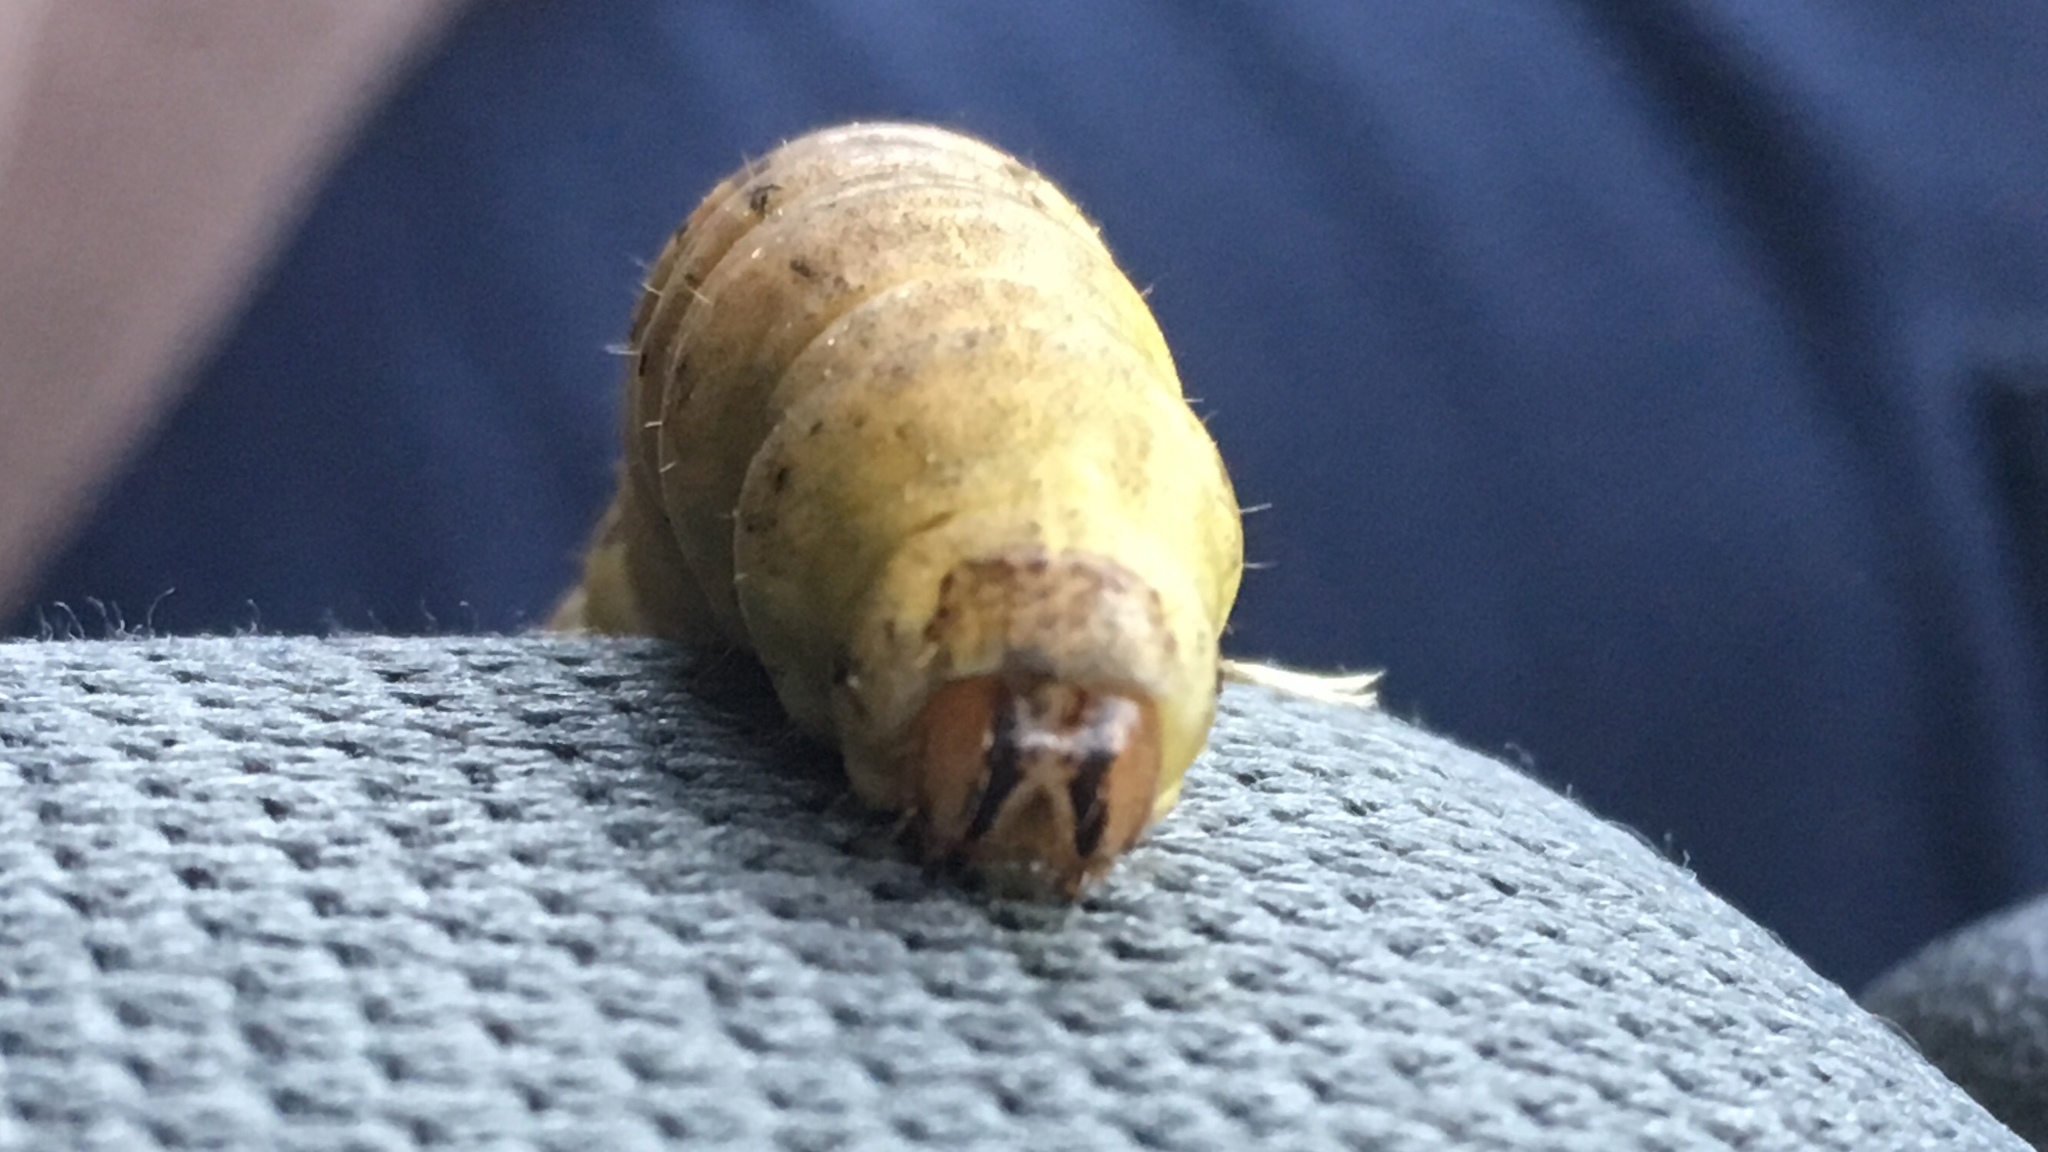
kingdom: Animalia
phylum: Arthropoda
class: Insecta
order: Lepidoptera
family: Noctuidae
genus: Noctua
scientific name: Noctua pronuba
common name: Large yellow underwing
